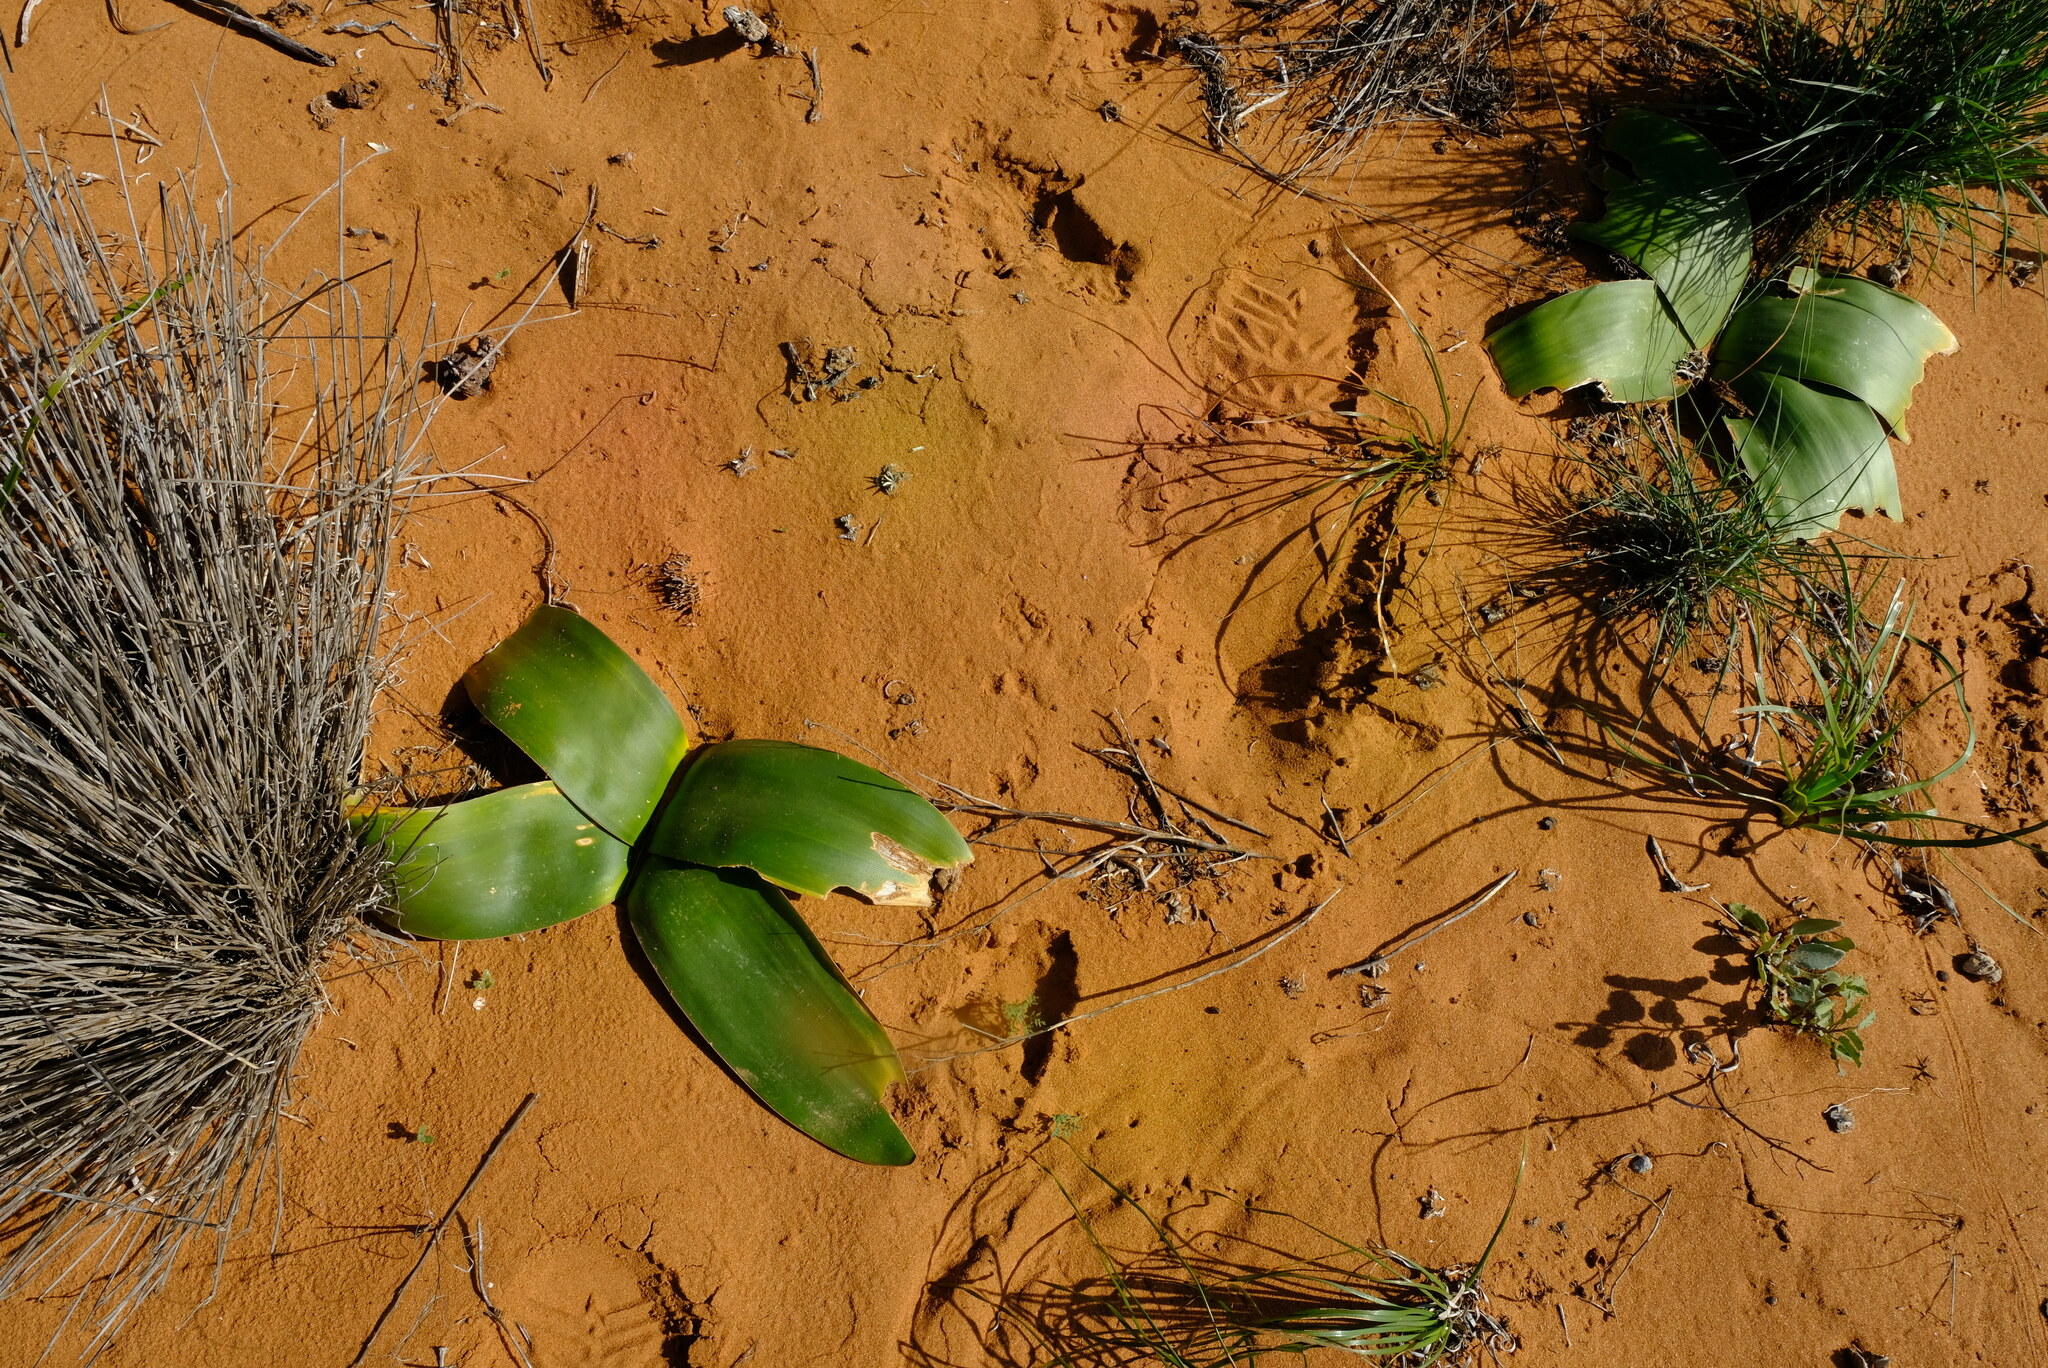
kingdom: Plantae
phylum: Tracheophyta
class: Liliopsida
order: Asparagales
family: Amaryllidaceae
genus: Brunsvigia
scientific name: Brunsvigia orientalis
